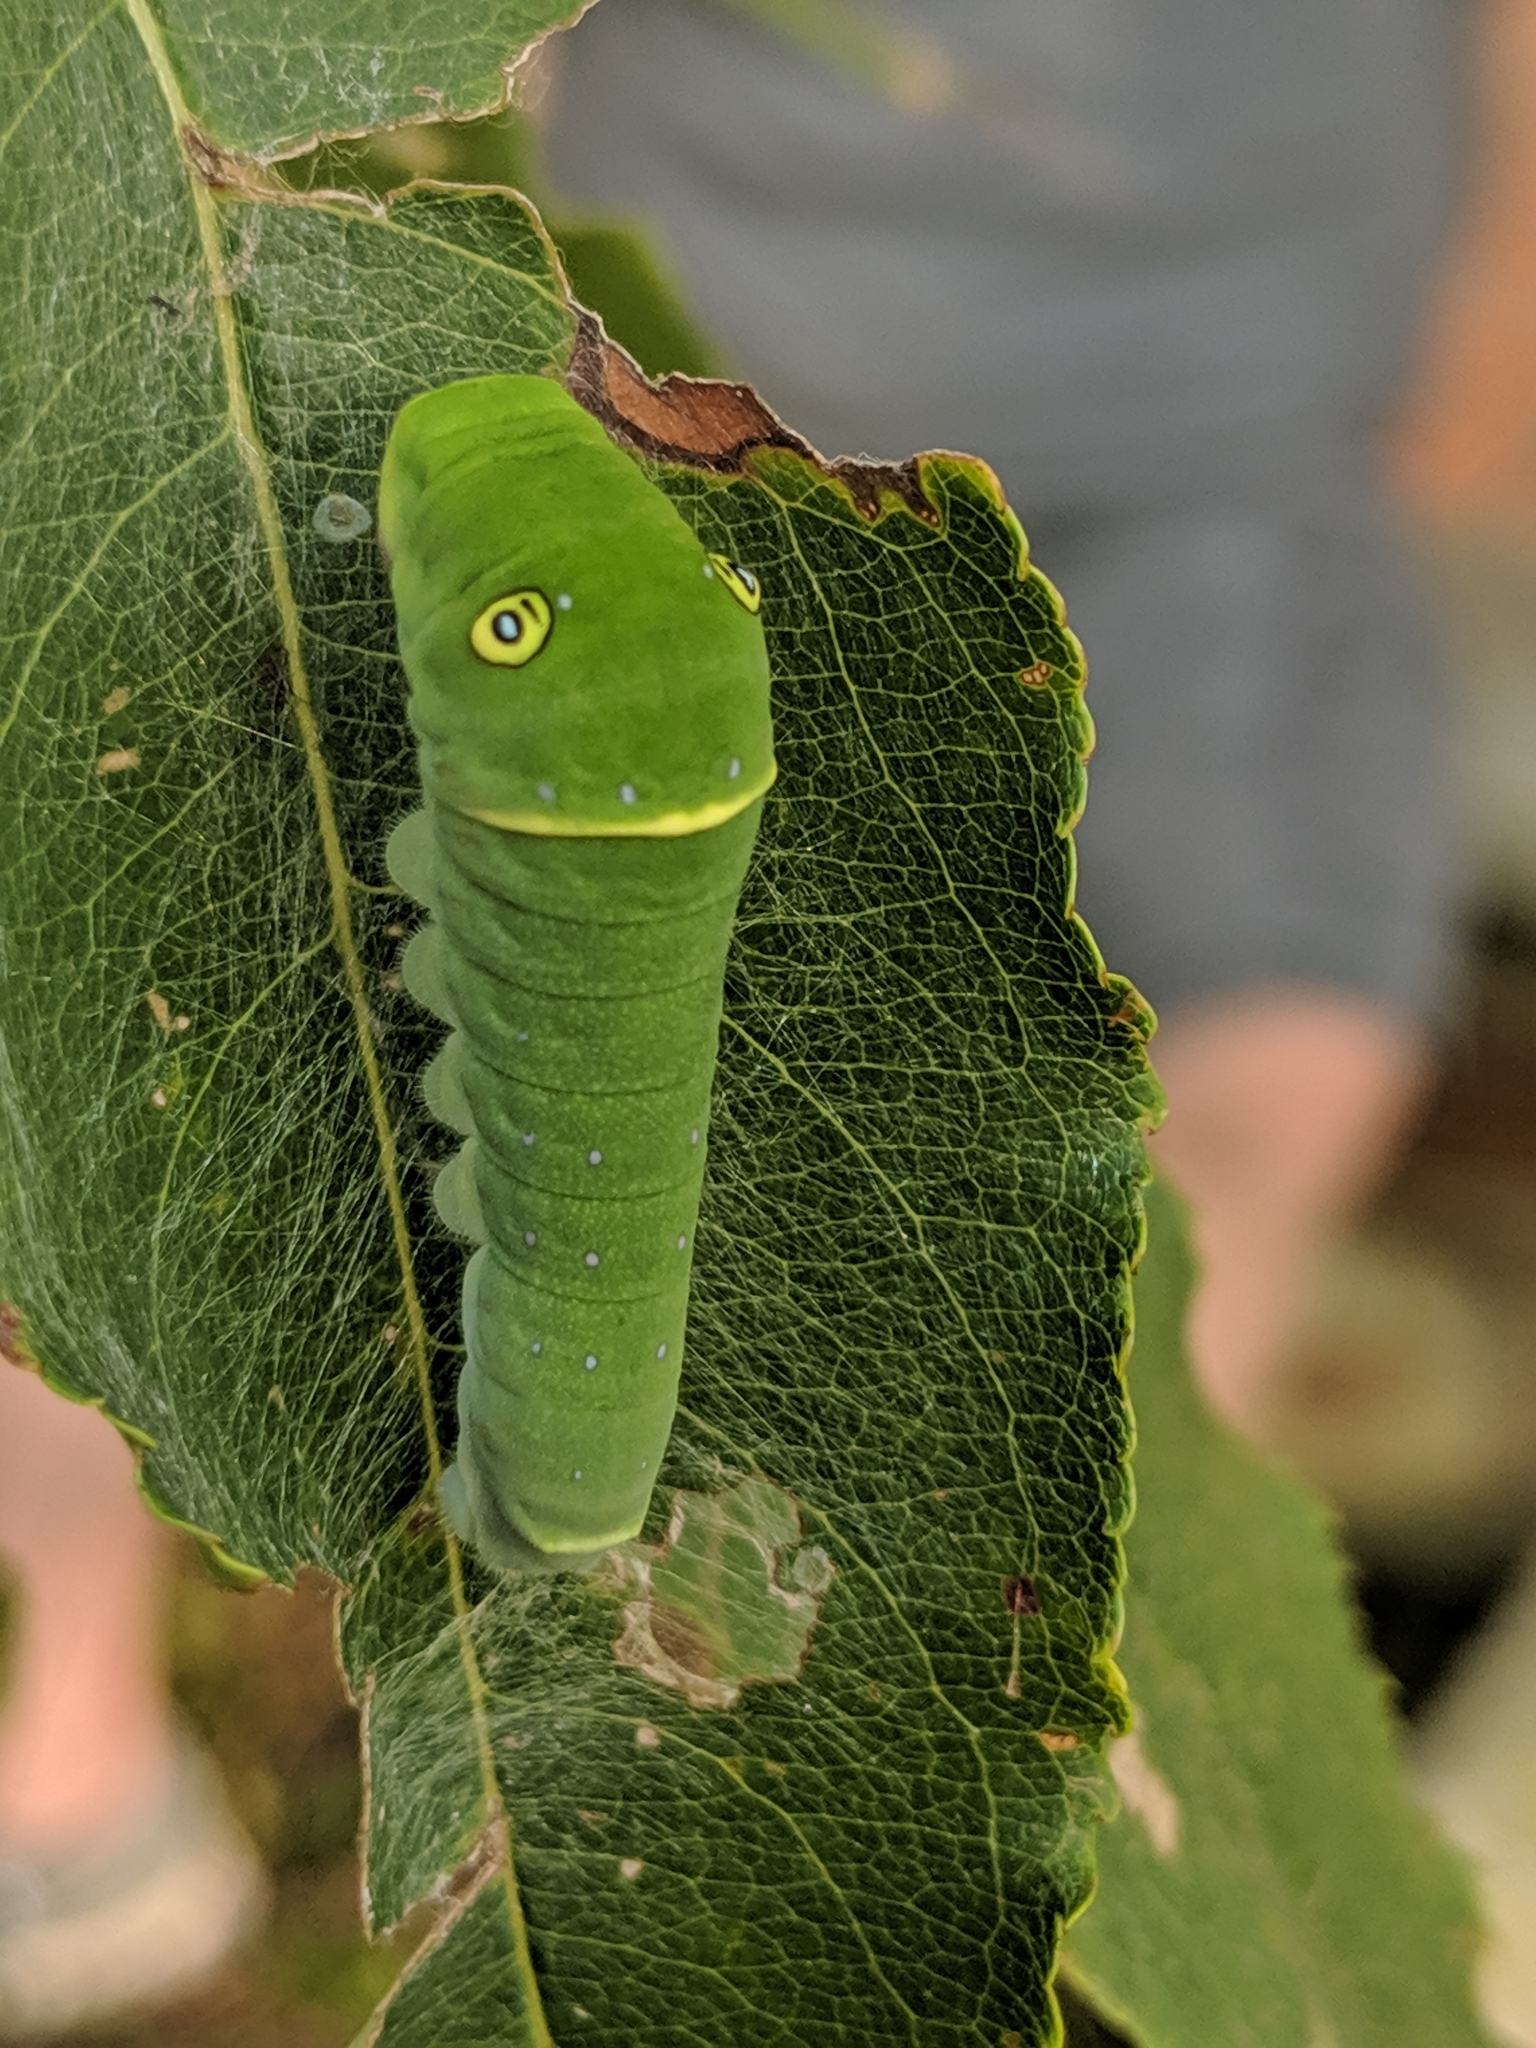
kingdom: Animalia
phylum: Arthropoda
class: Insecta
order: Lepidoptera
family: Papilionidae
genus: Papilio
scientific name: Papilio glaucus
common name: Tiger swallowtail
